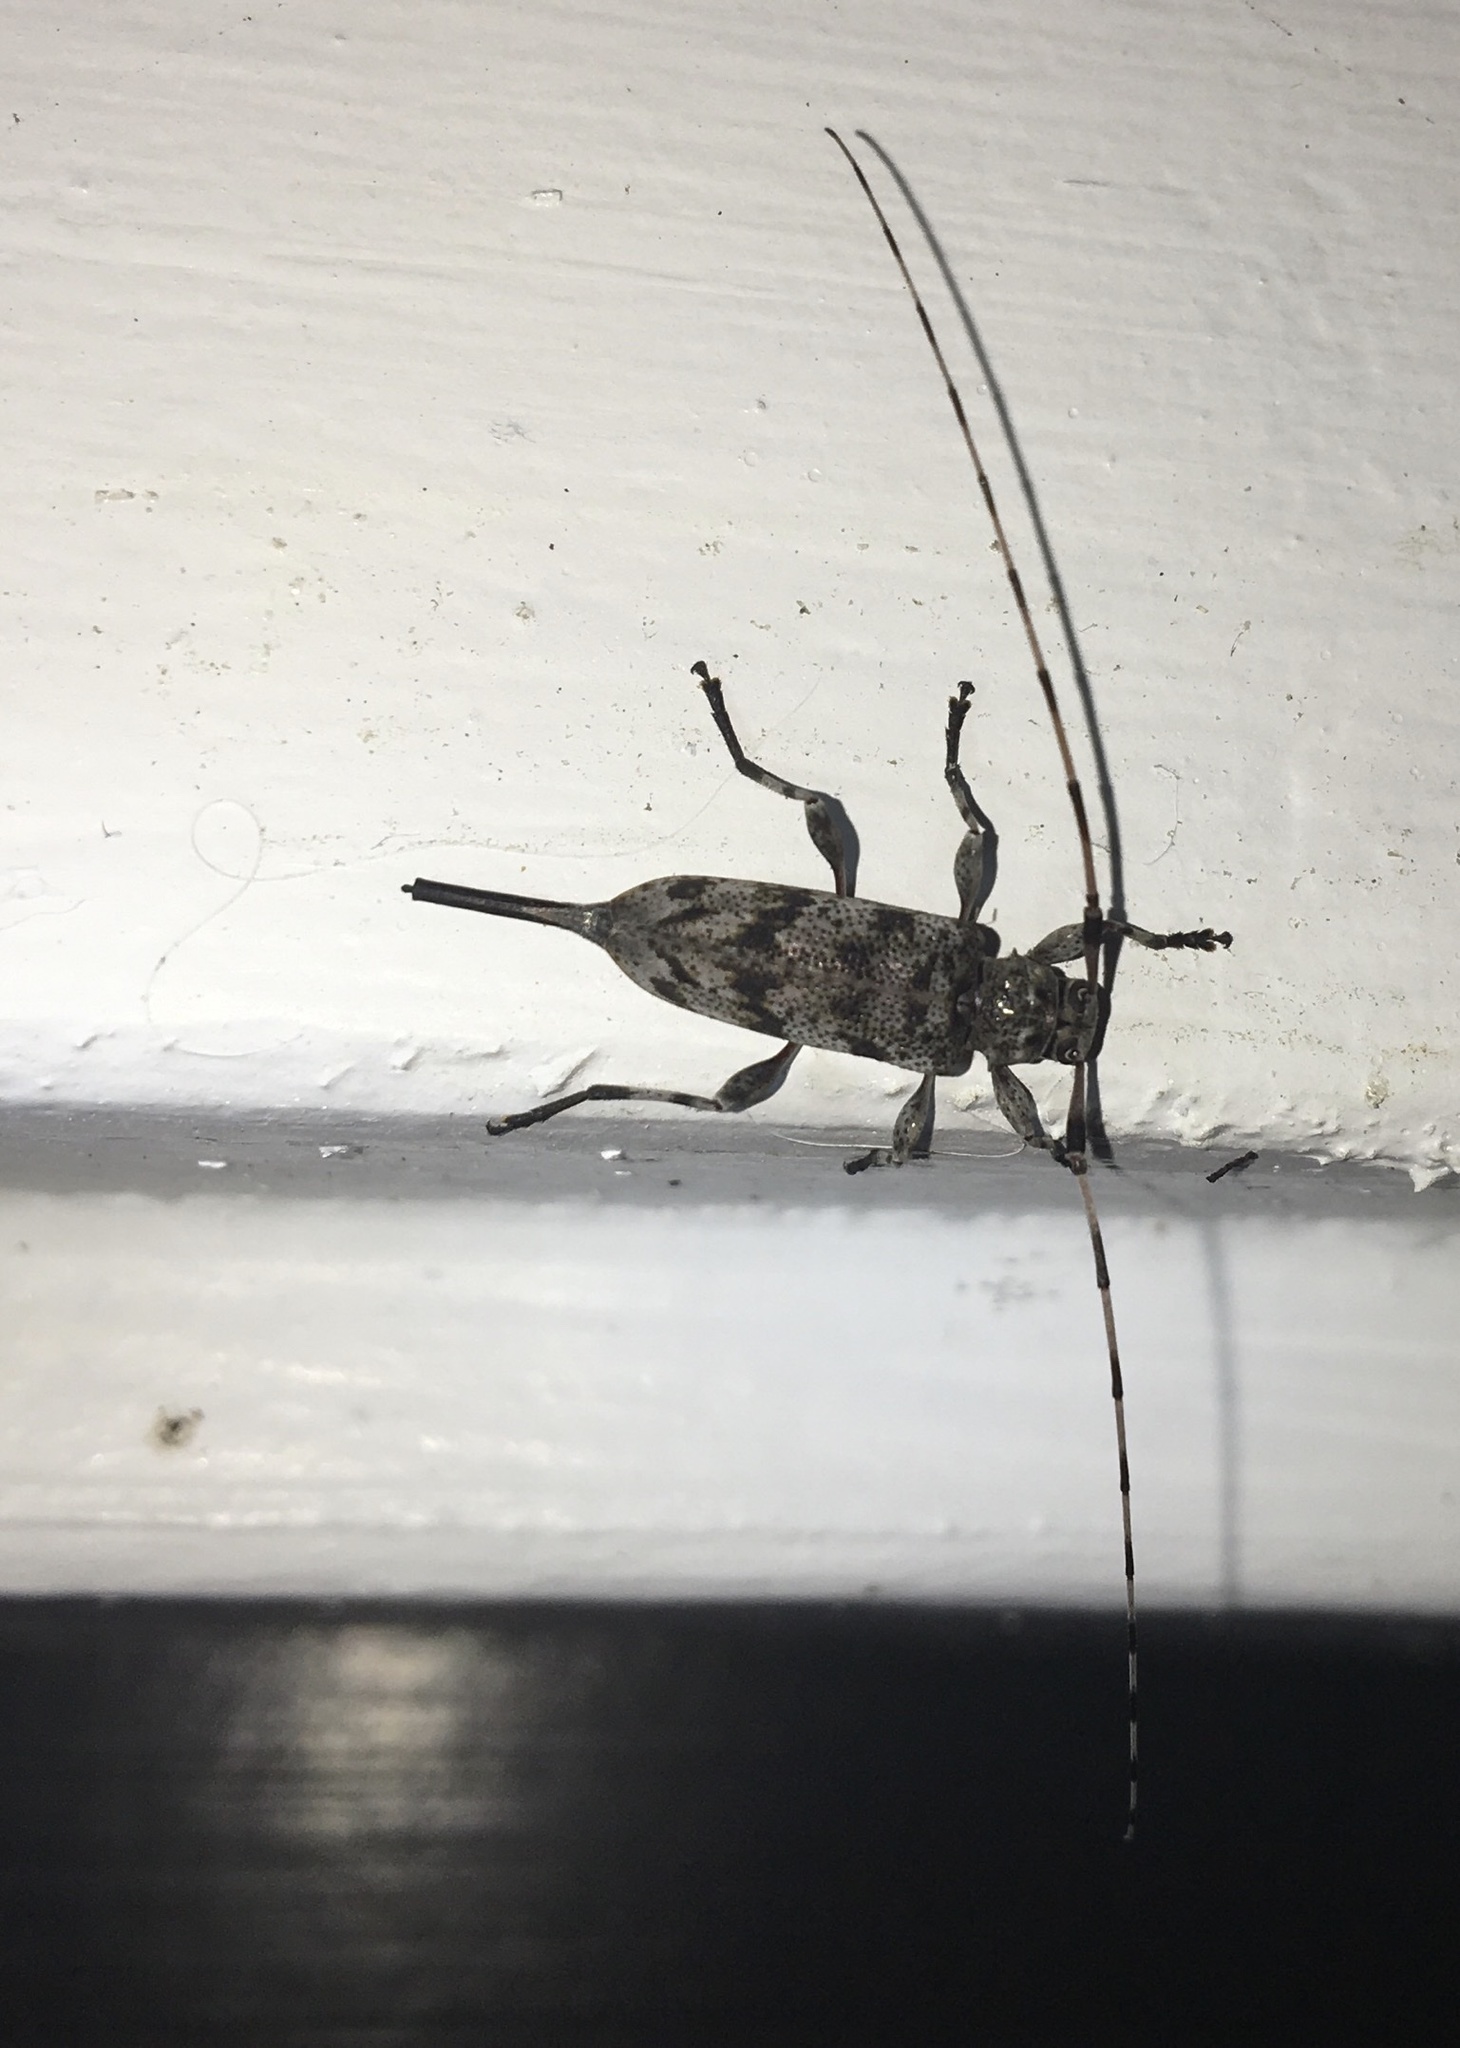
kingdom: Animalia
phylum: Arthropoda
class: Insecta
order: Coleoptera
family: Cerambycidae
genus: Acanthocinus
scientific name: Acanthocinus obsoletus
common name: Roundheaded borer
